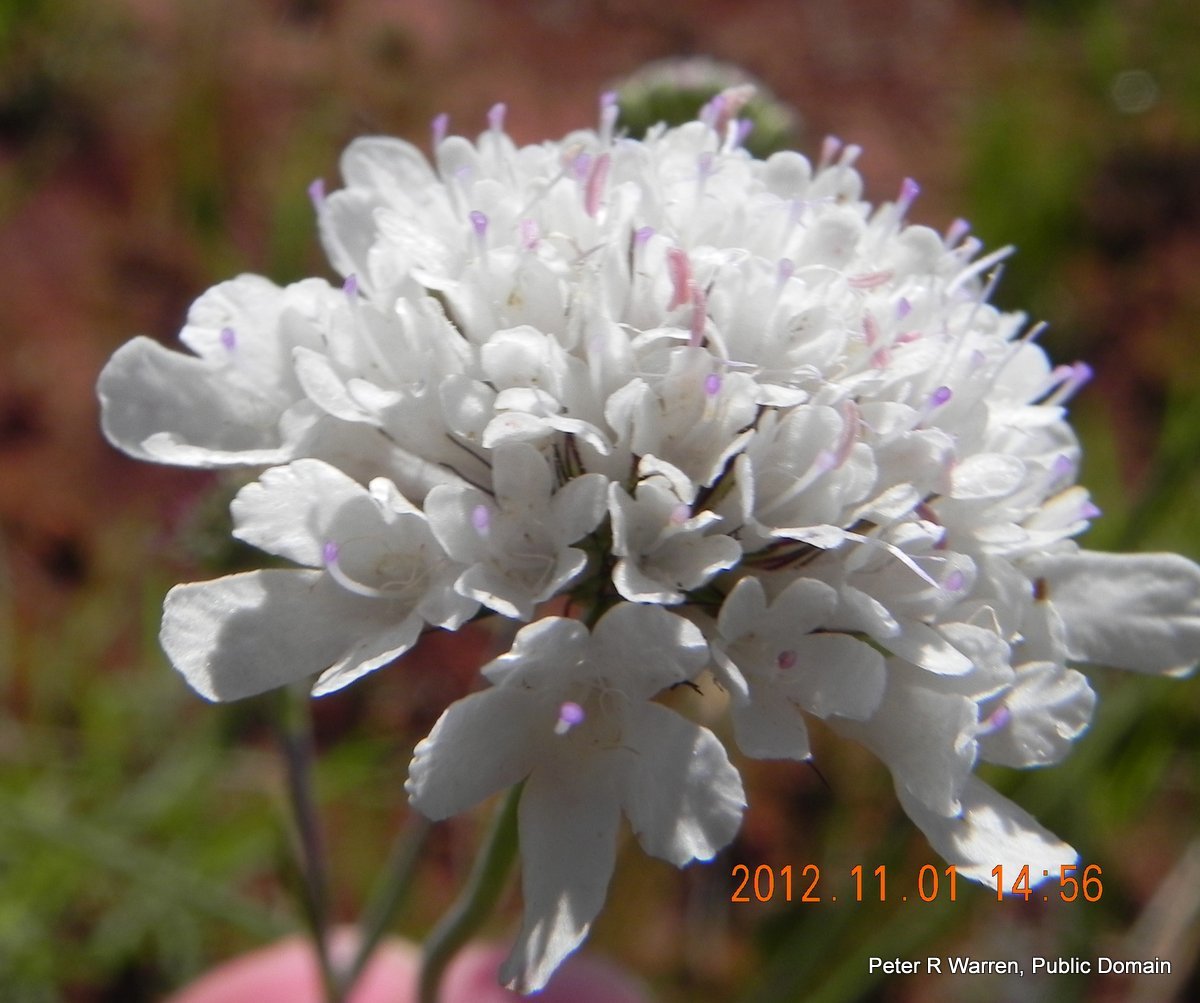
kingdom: Plantae
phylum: Tracheophyta
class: Magnoliopsida
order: Dipsacales
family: Caprifoliaceae
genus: Scabiosa
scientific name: Scabiosa columbaria
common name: Small scabious
